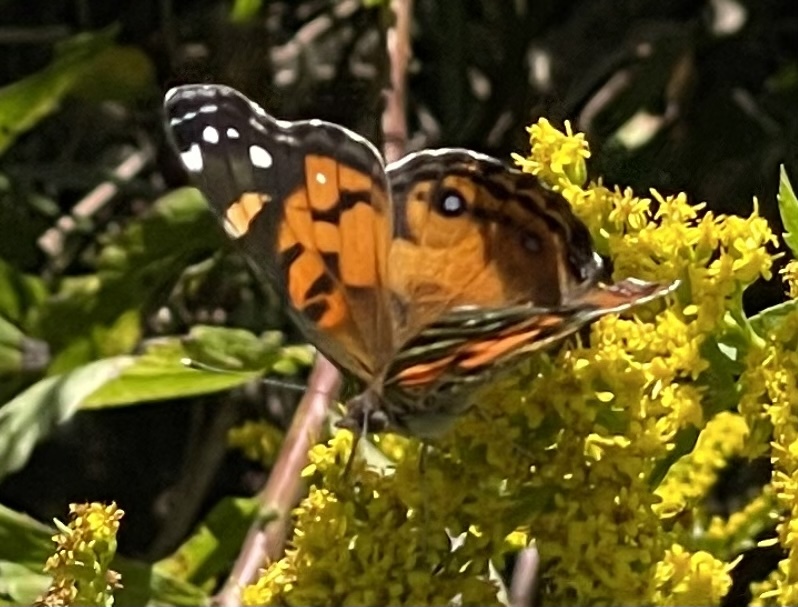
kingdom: Animalia
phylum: Arthropoda
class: Insecta
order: Lepidoptera
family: Nymphalidae
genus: Vanessa
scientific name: Vanessa virginiensis
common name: American lady
